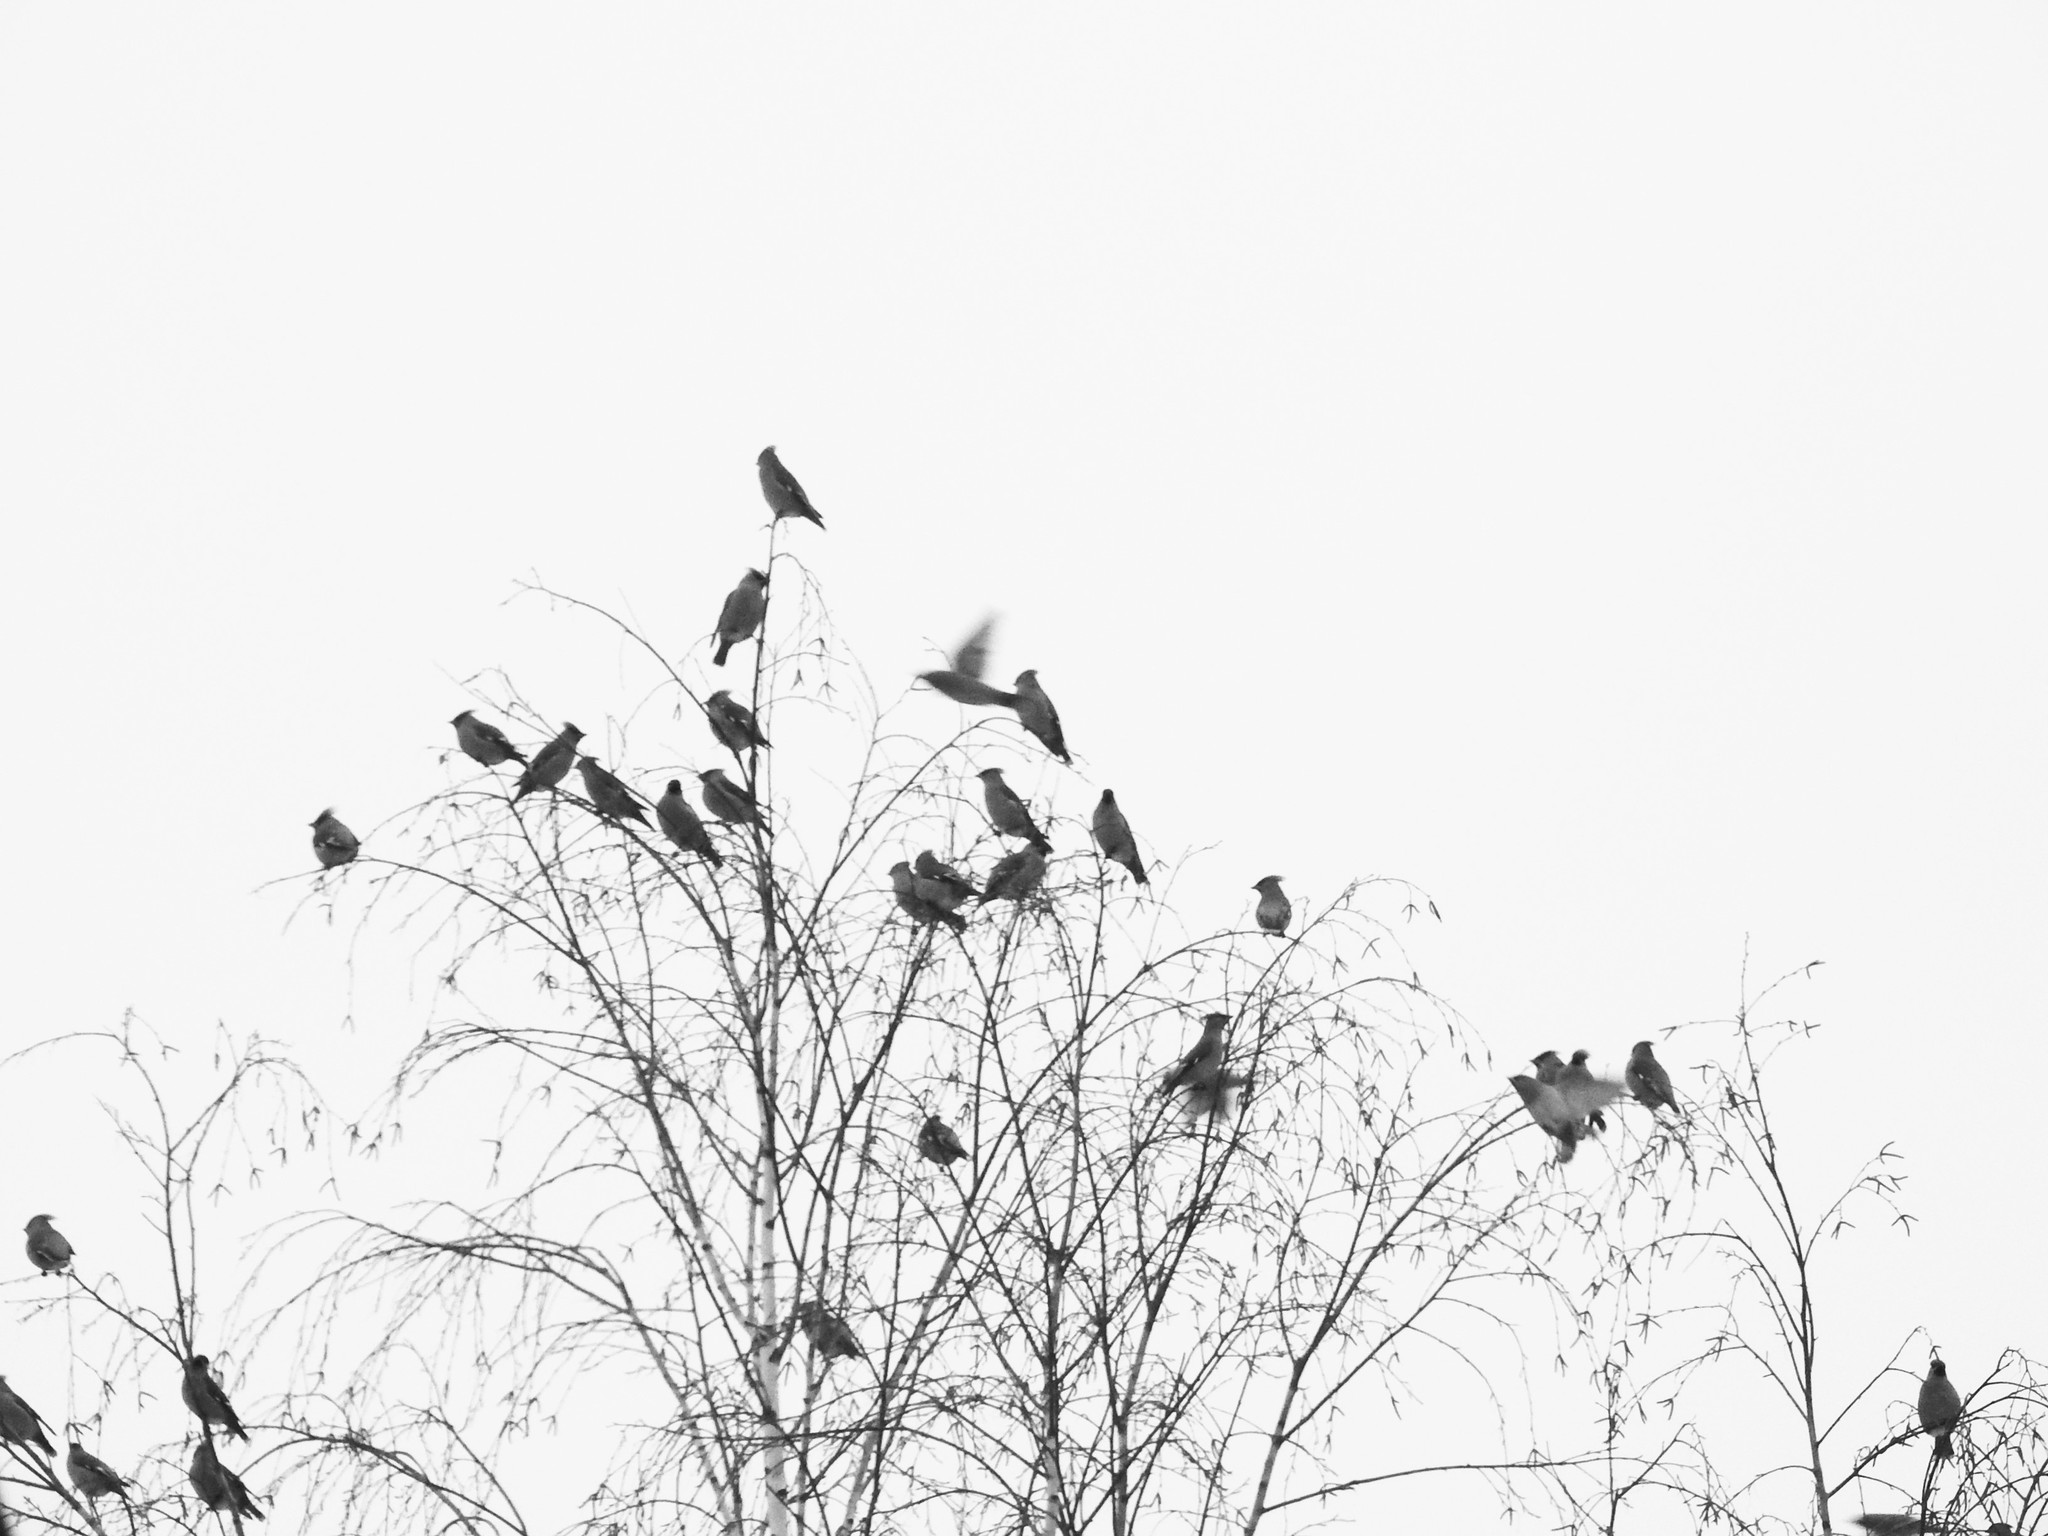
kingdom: Animalia
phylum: Chordata
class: Aves
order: Passeriformes
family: Bombycillidae
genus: Bombycilla
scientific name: Bombycilla garrulus
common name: Bohemian waxwing
